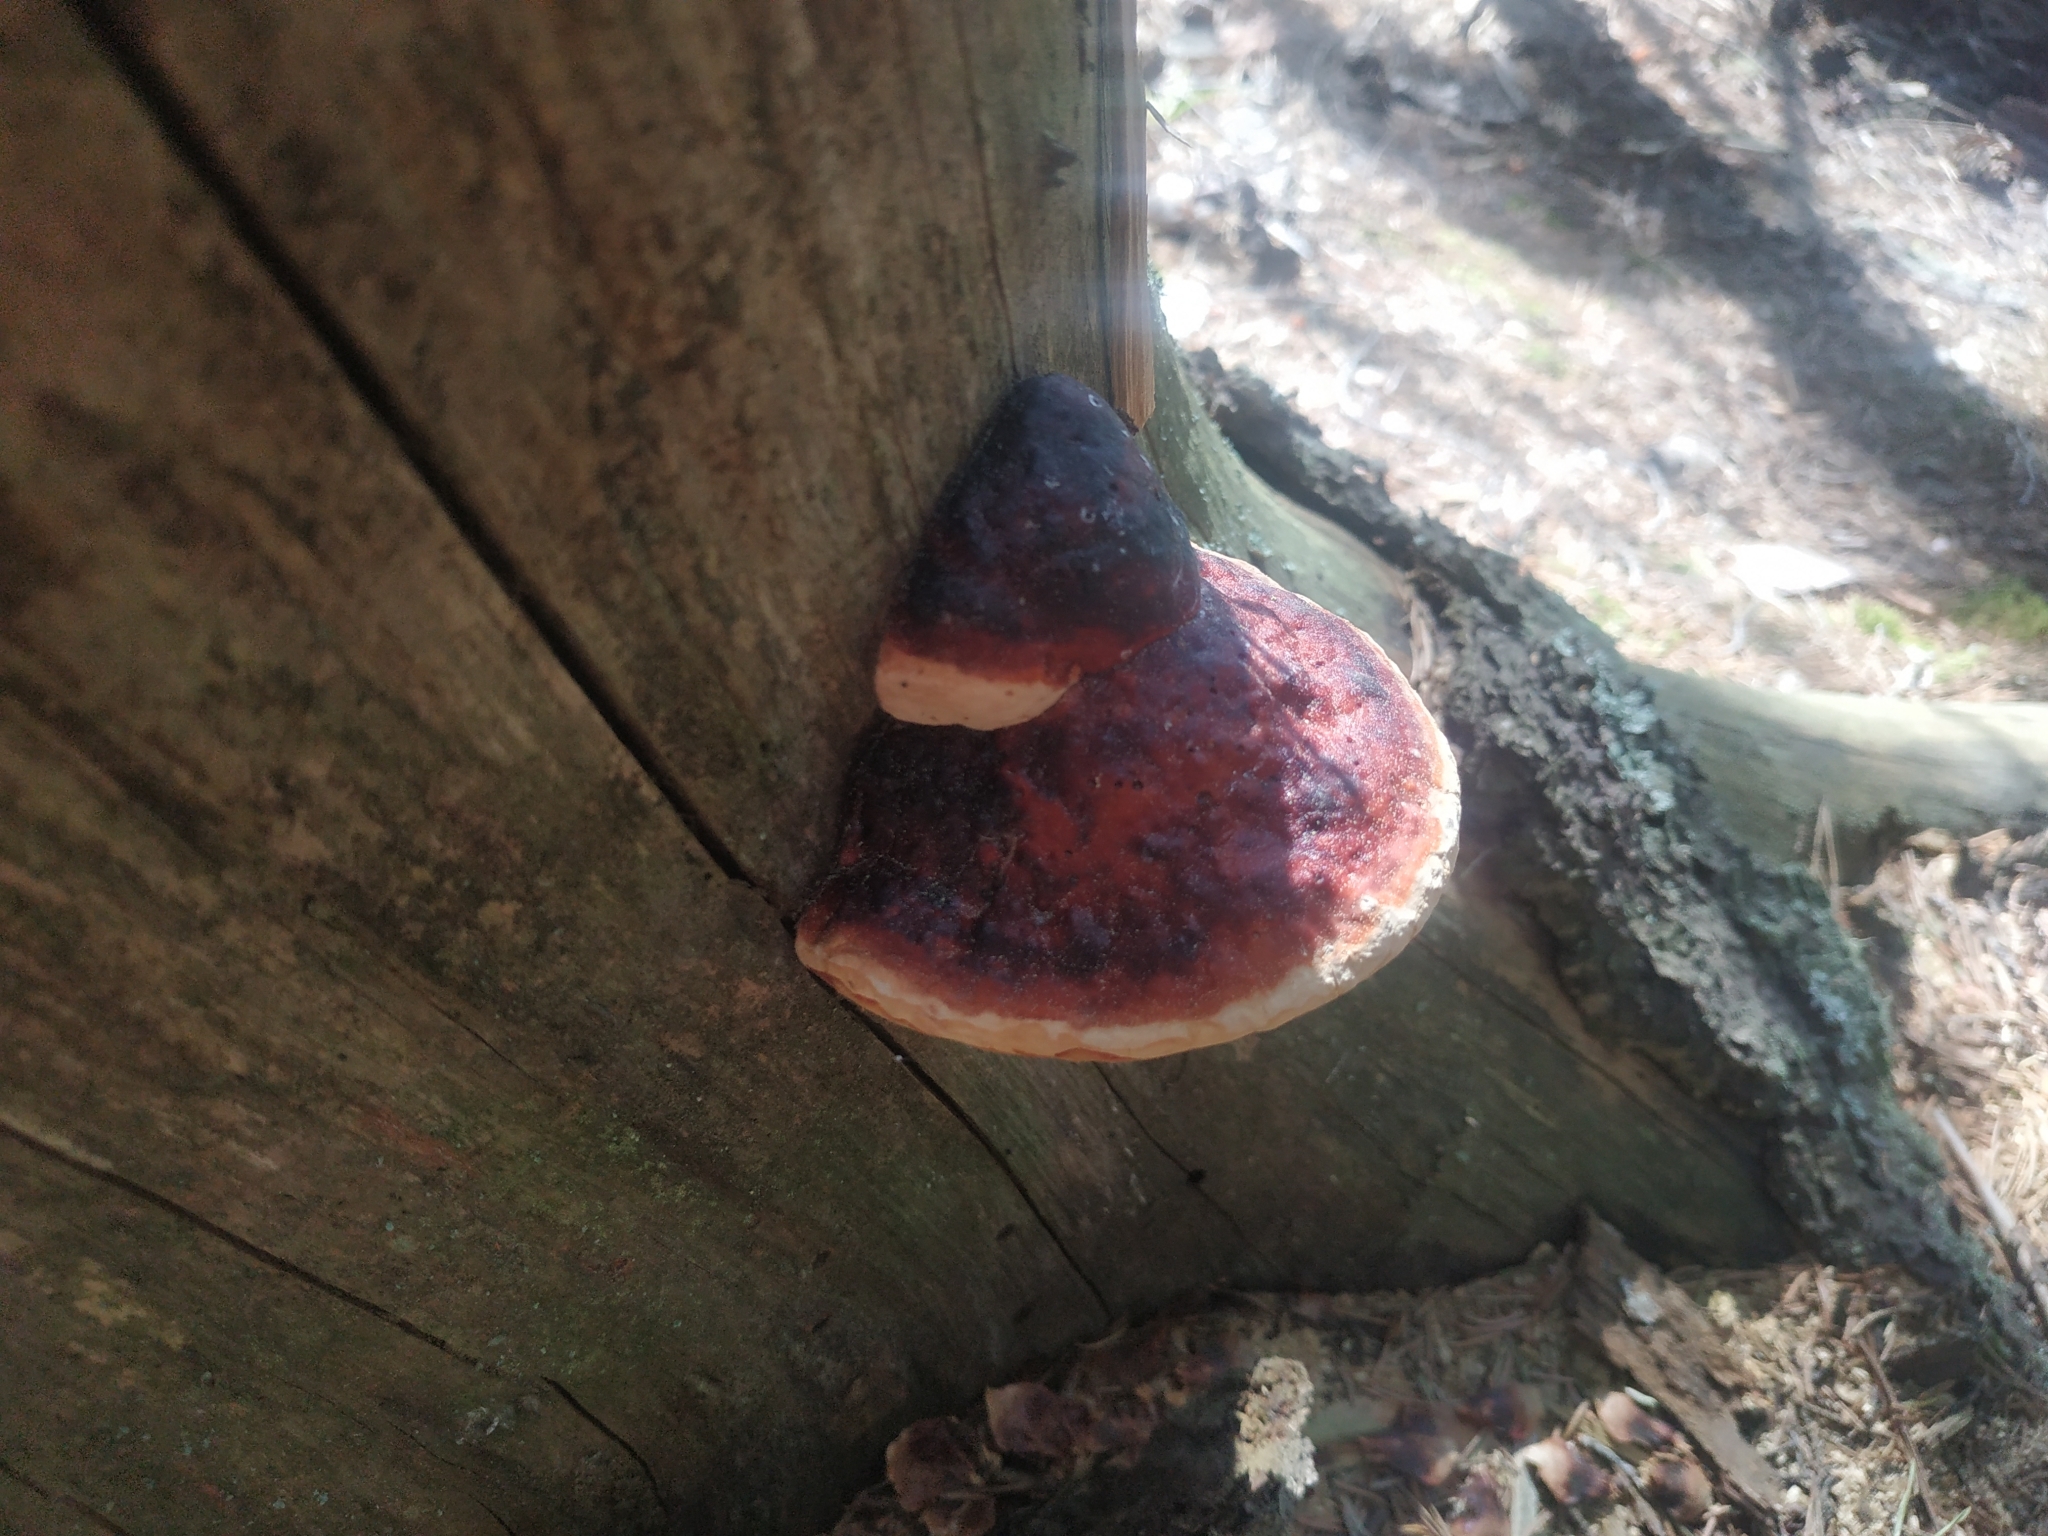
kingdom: Fungi
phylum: Basidiomycota
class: Agaricomycetes
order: Polyporales
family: Fomitopsidaceae
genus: Fomitopsis
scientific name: Fomitopsis pinicola
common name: Red-belted bracket
